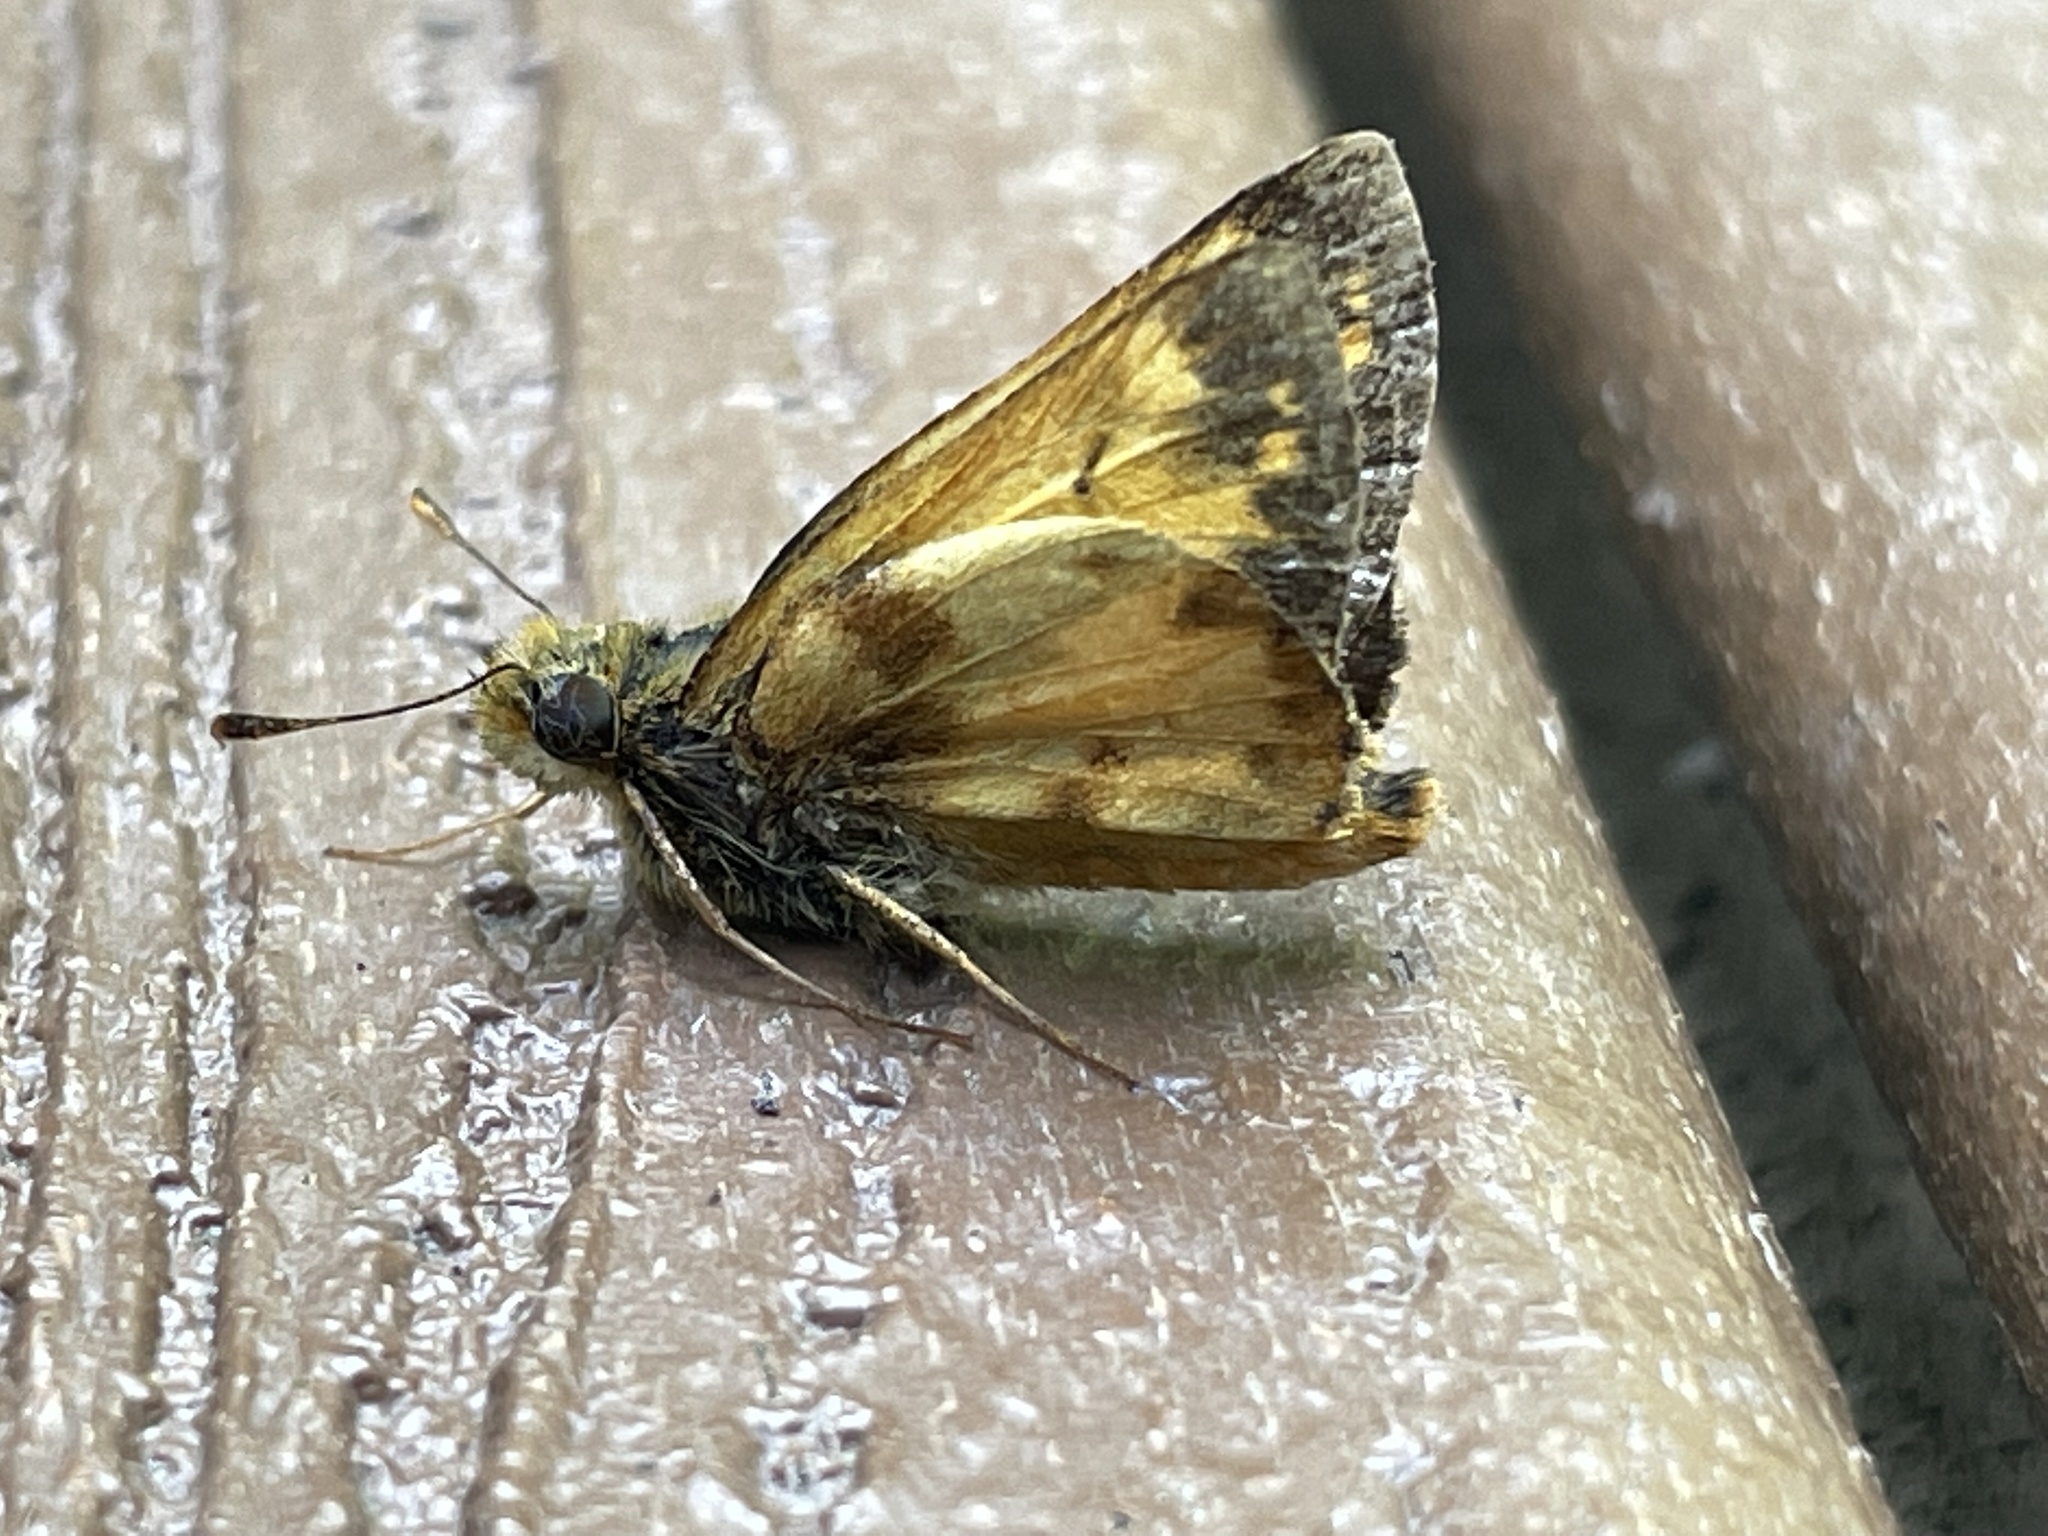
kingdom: Animalia
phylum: Arthropoda
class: Insecta
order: Lepidoptera
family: Hesperiidae
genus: Lon
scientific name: Lon zabulon
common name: Zabulon skipper
